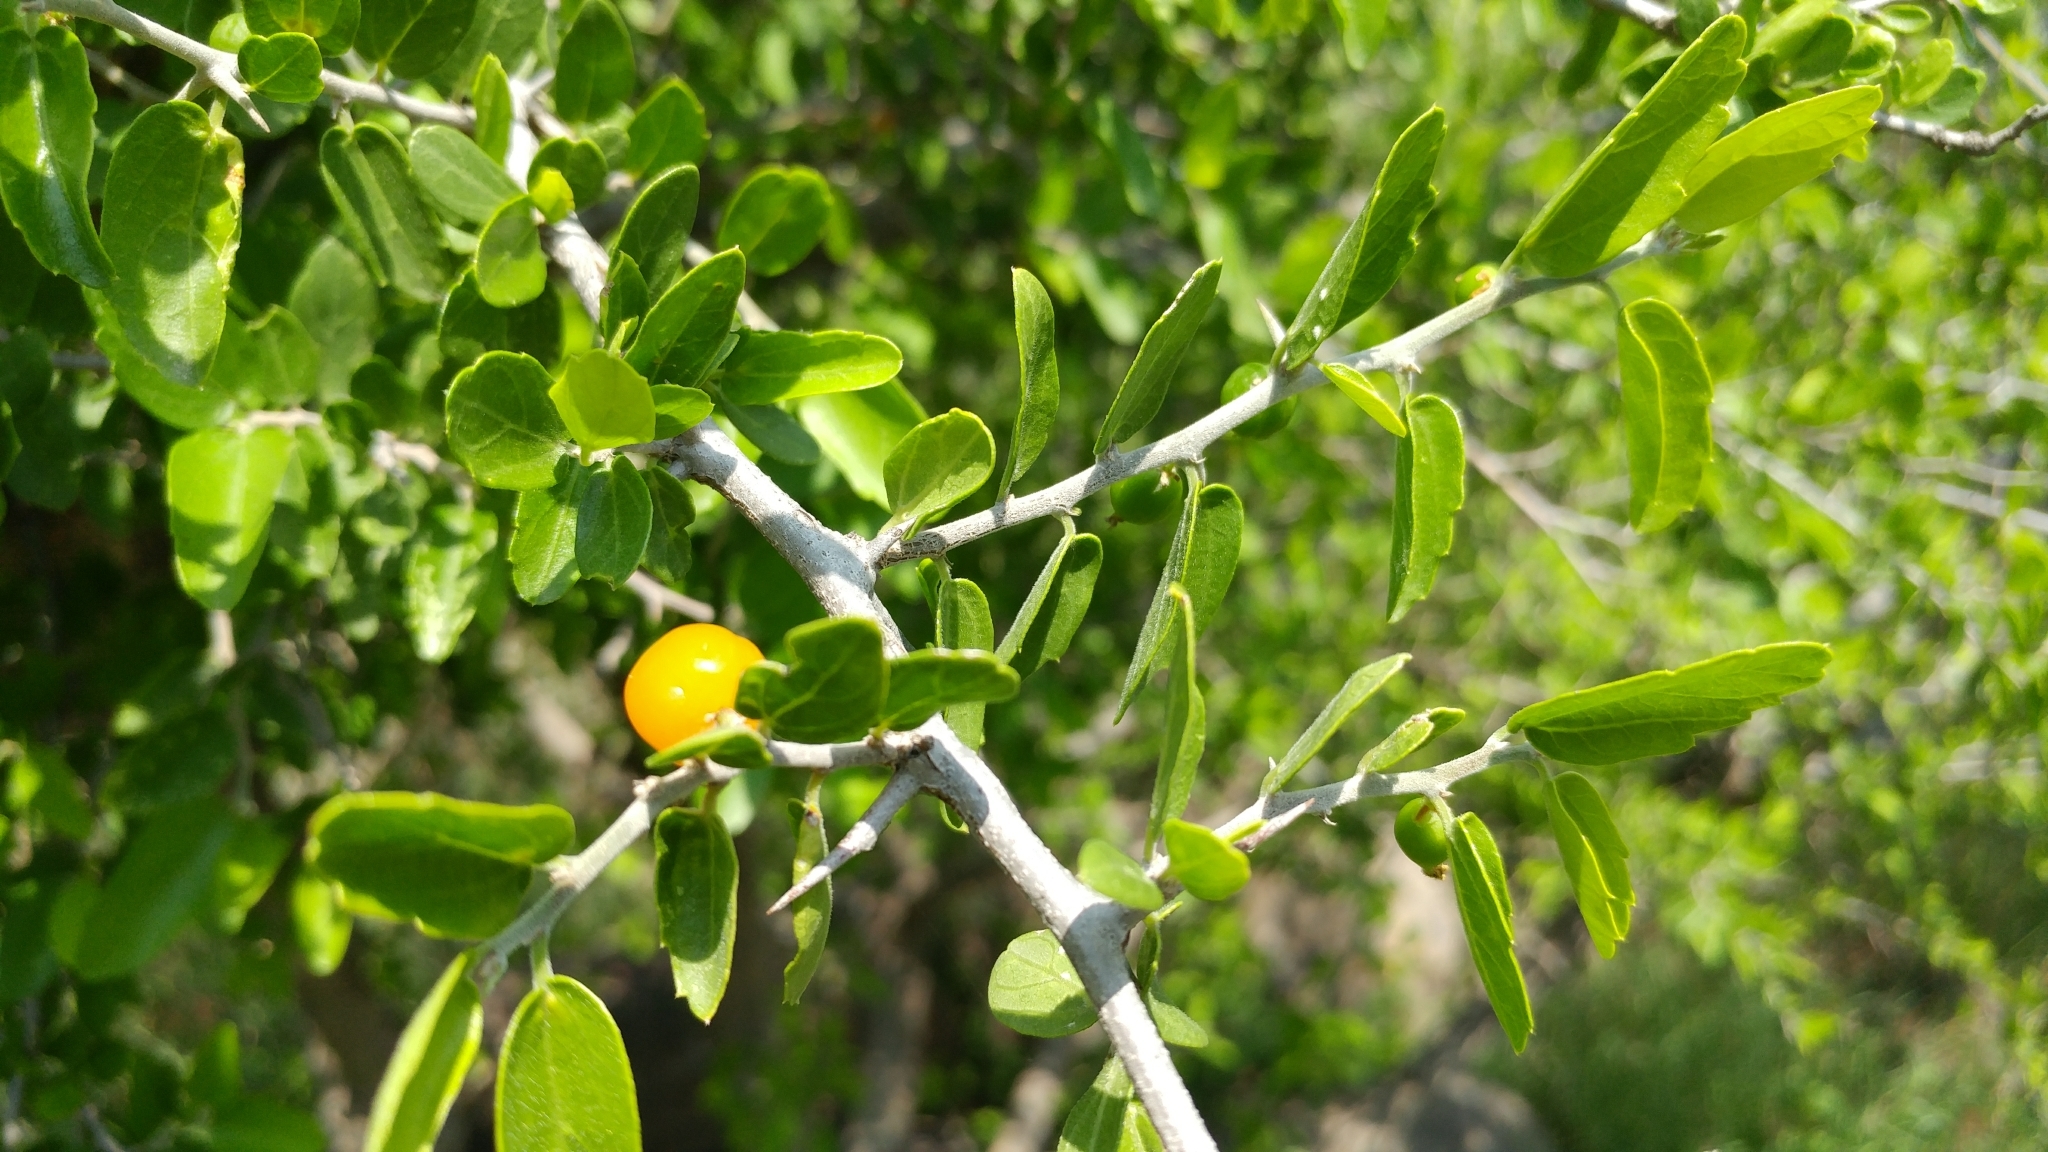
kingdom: Plantae
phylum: Tracheophyta
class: Magnoliopsida
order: Rosales
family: Cannabaceae
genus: Celtis
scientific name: Celtis pallida
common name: Desert hackberry
